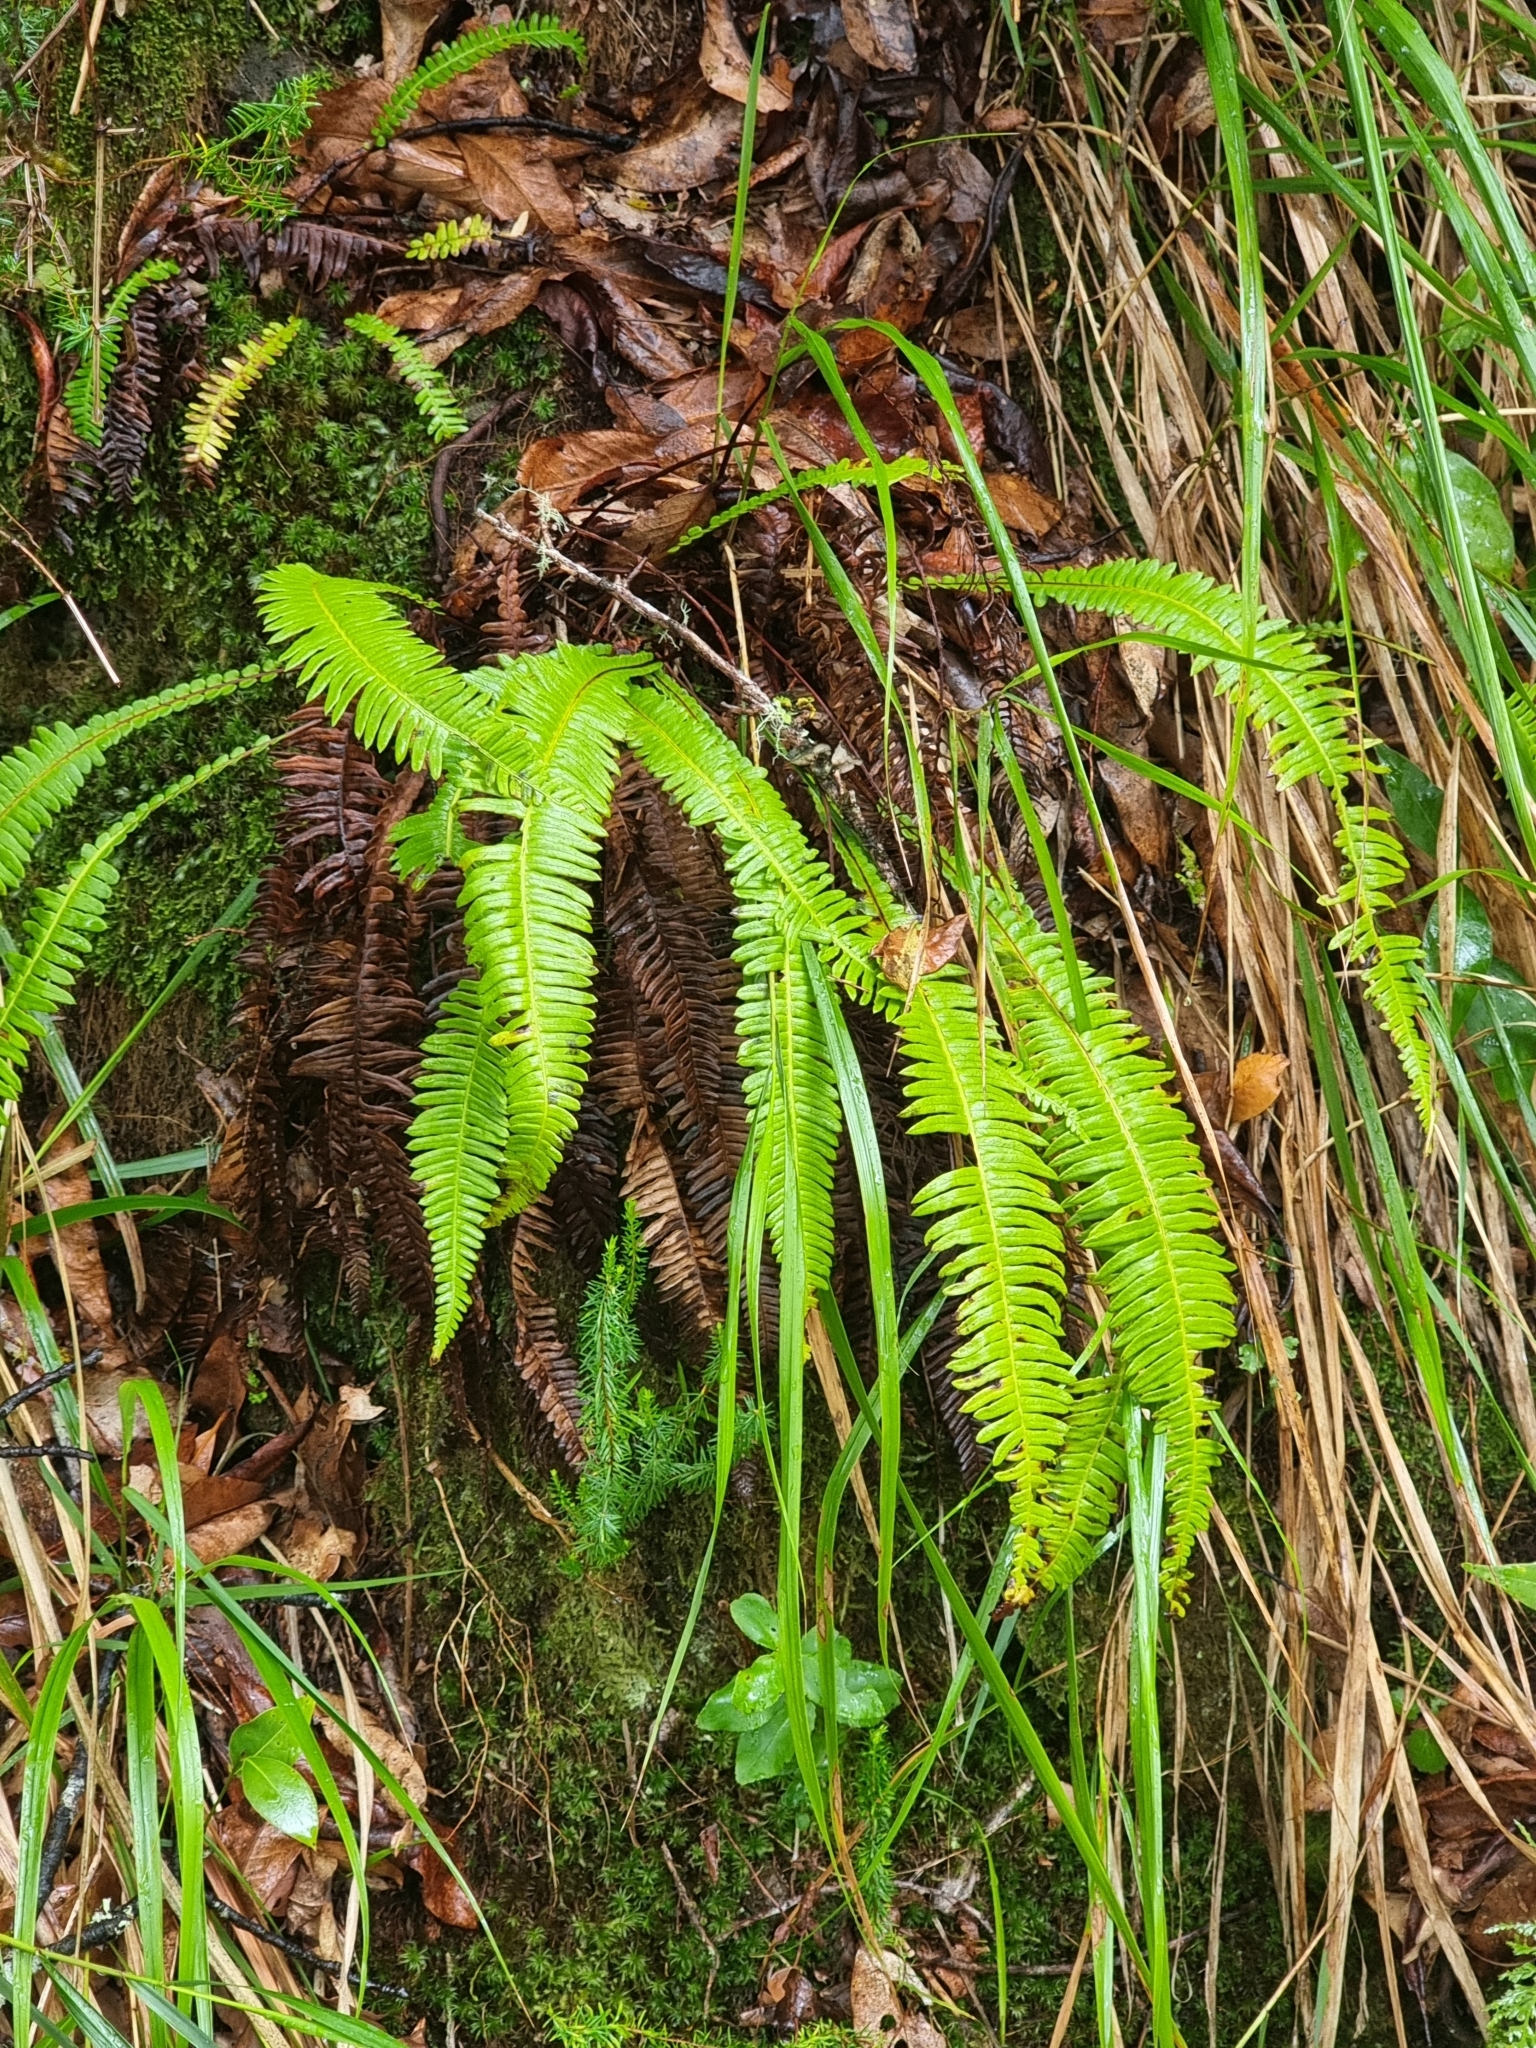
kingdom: Plantae
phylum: Tracheophyta
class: Polypodiopsida
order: Polypodiales
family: Blechnaceae
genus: Struthiopteris
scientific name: Struthiopteris spicant
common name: Deer fern
